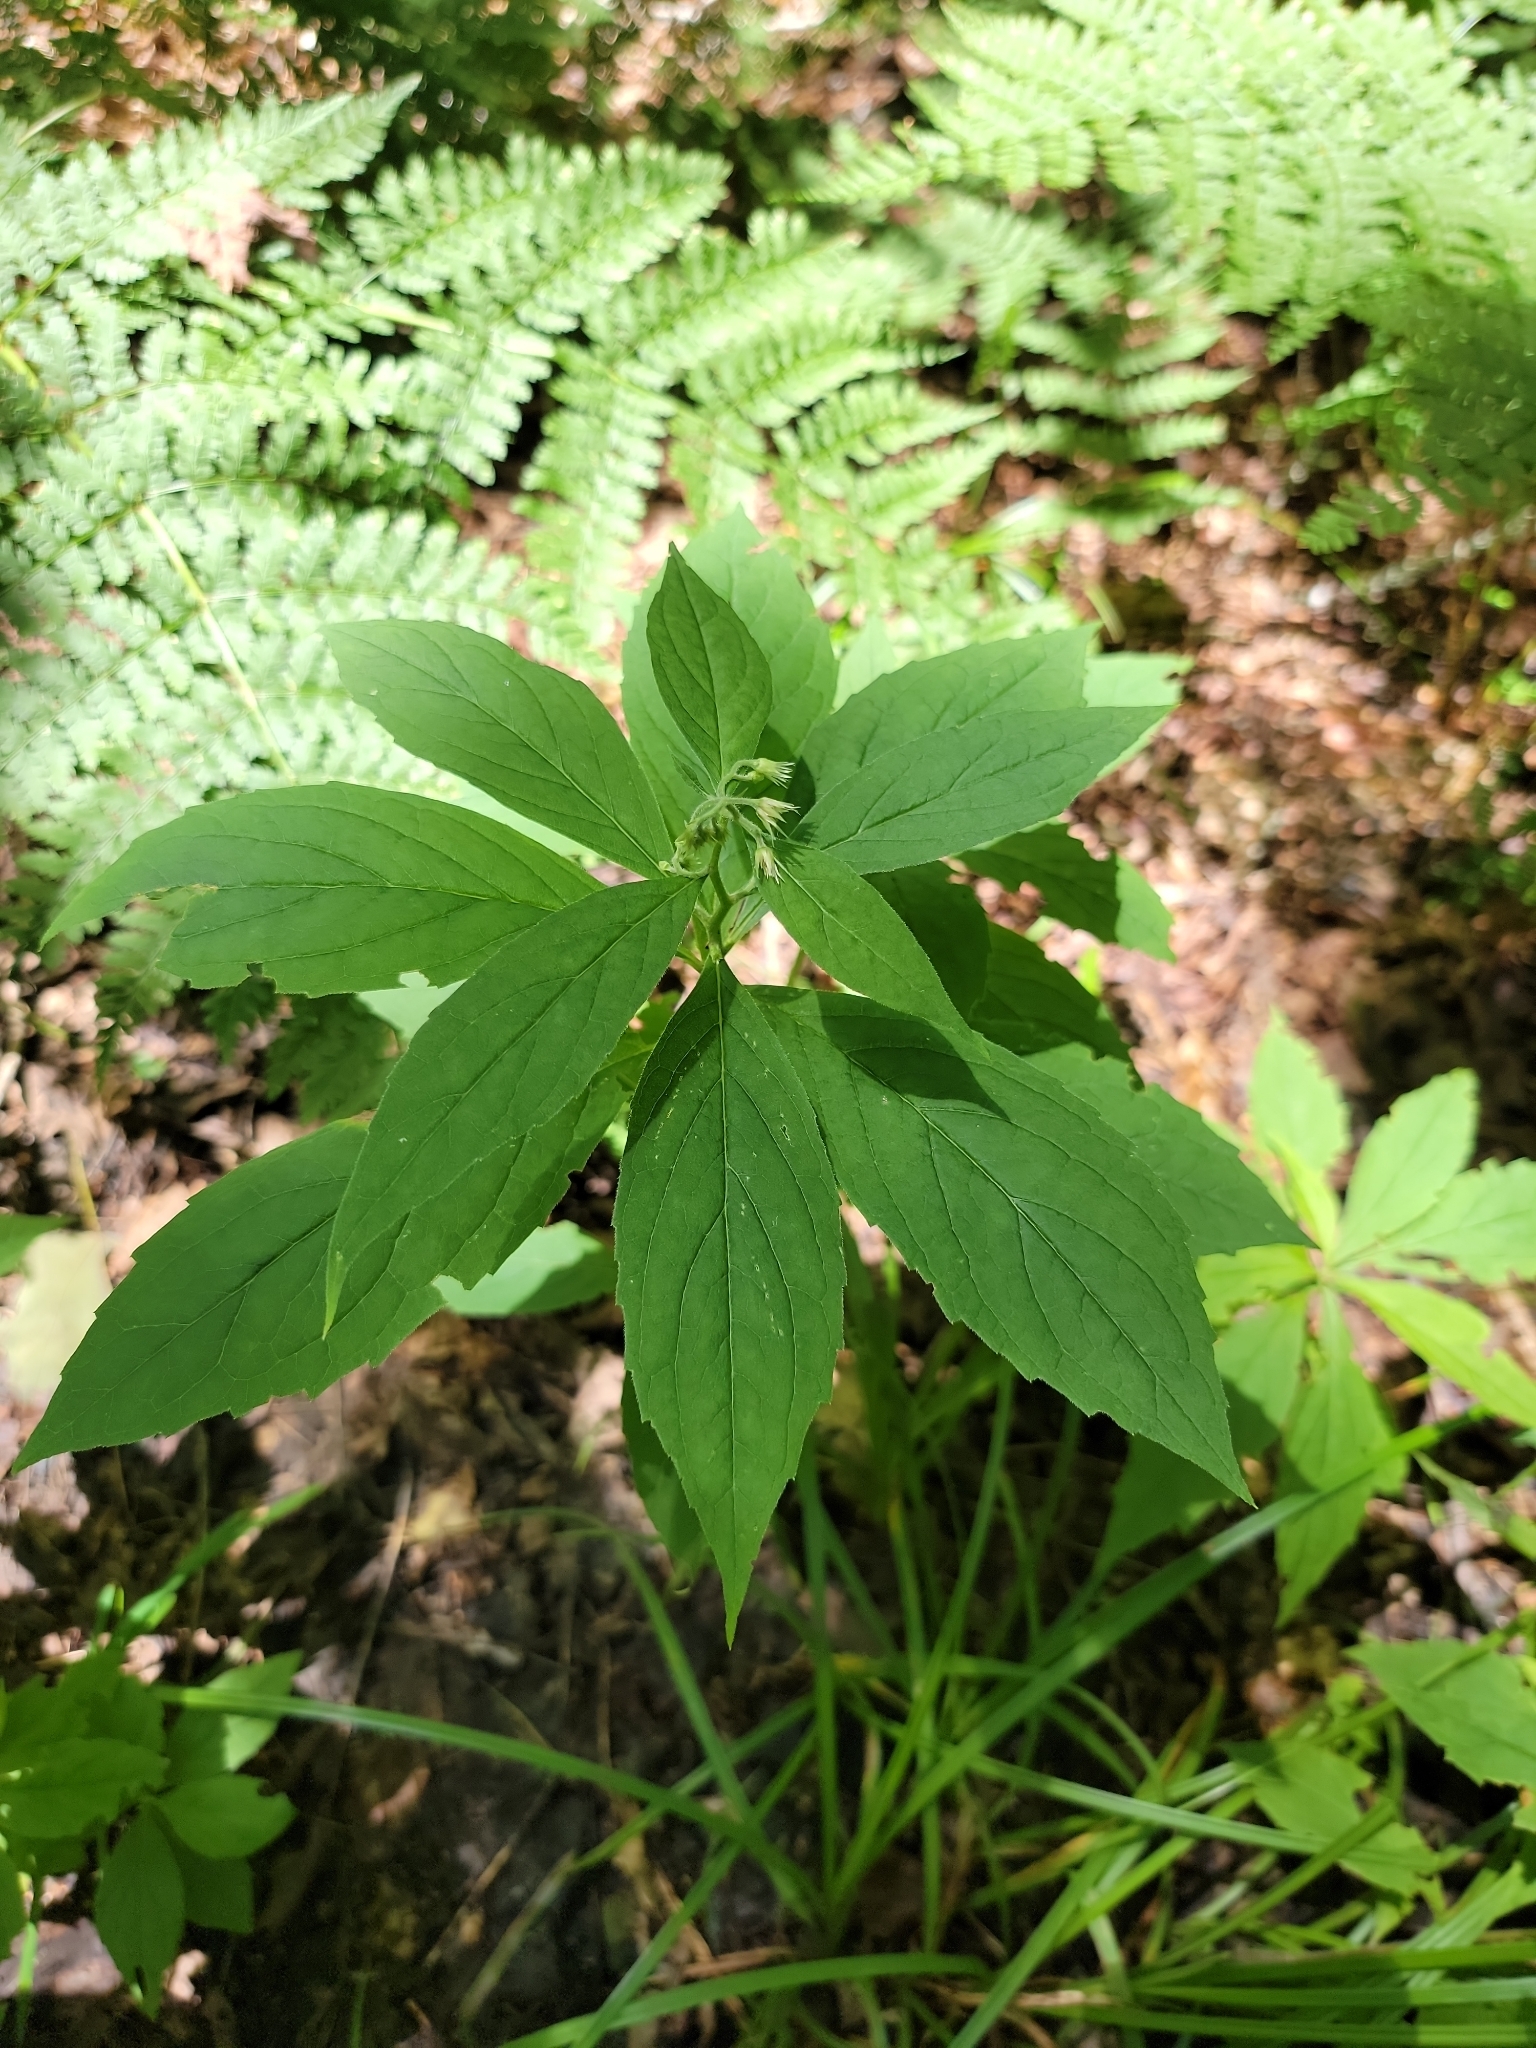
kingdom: Plantae
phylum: Tracheophyta
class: Magnoliopsida
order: Asterales
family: Asteraceae
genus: Oclemena
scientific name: Oclemena acuminata
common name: Mountain aster
